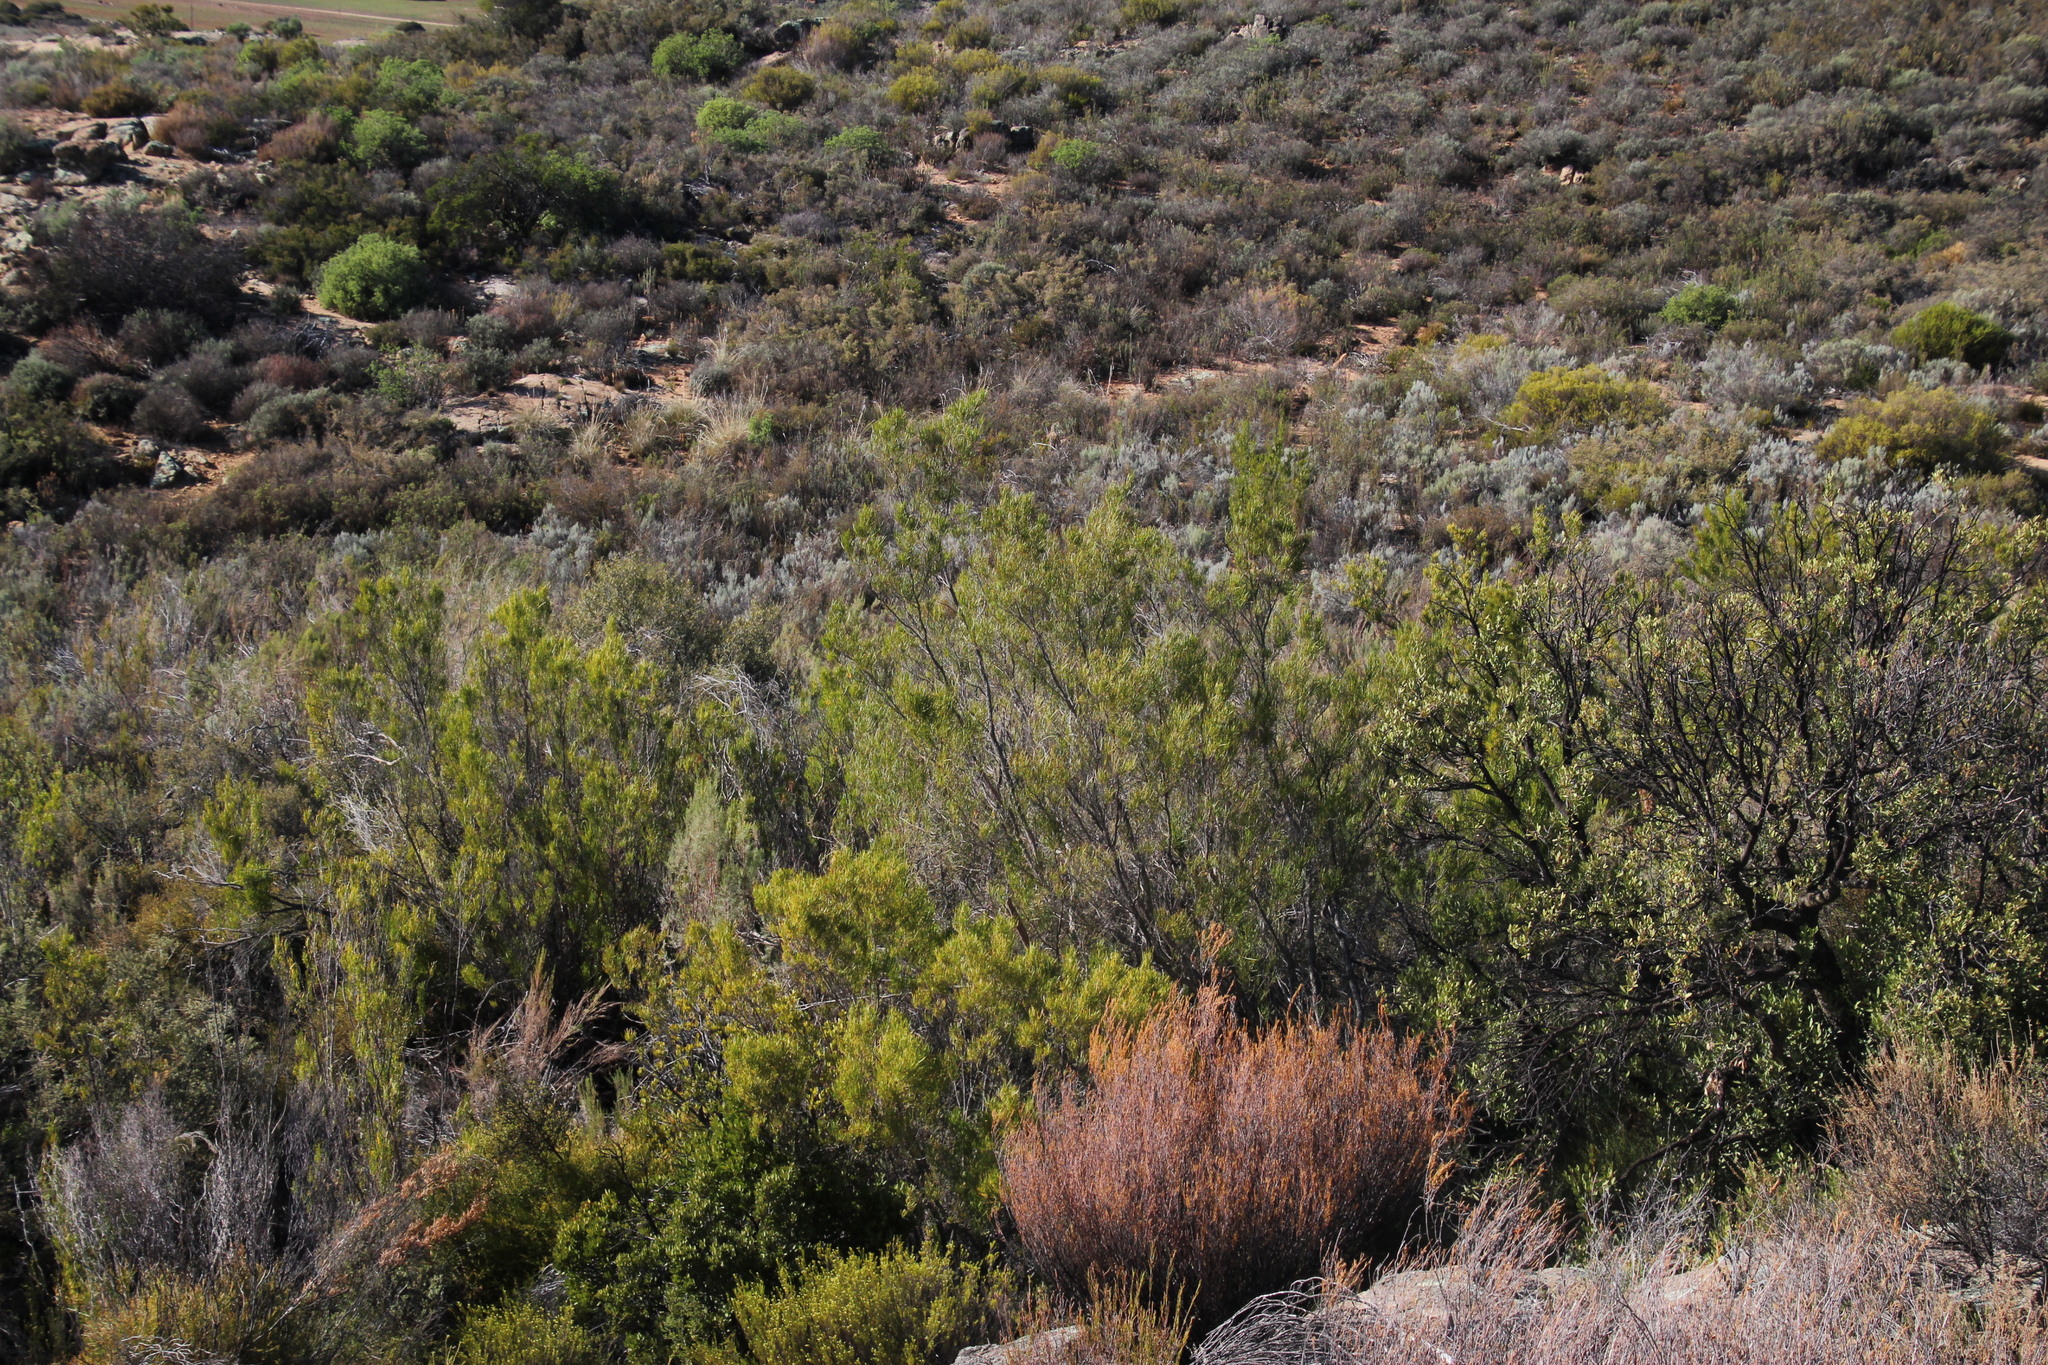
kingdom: Plantae
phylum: Tracheophyta
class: Magnoliopsida
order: Sapindales
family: Sapindaceae
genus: Dodonaea
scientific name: Dodonaea viscosa
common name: Hopbush
